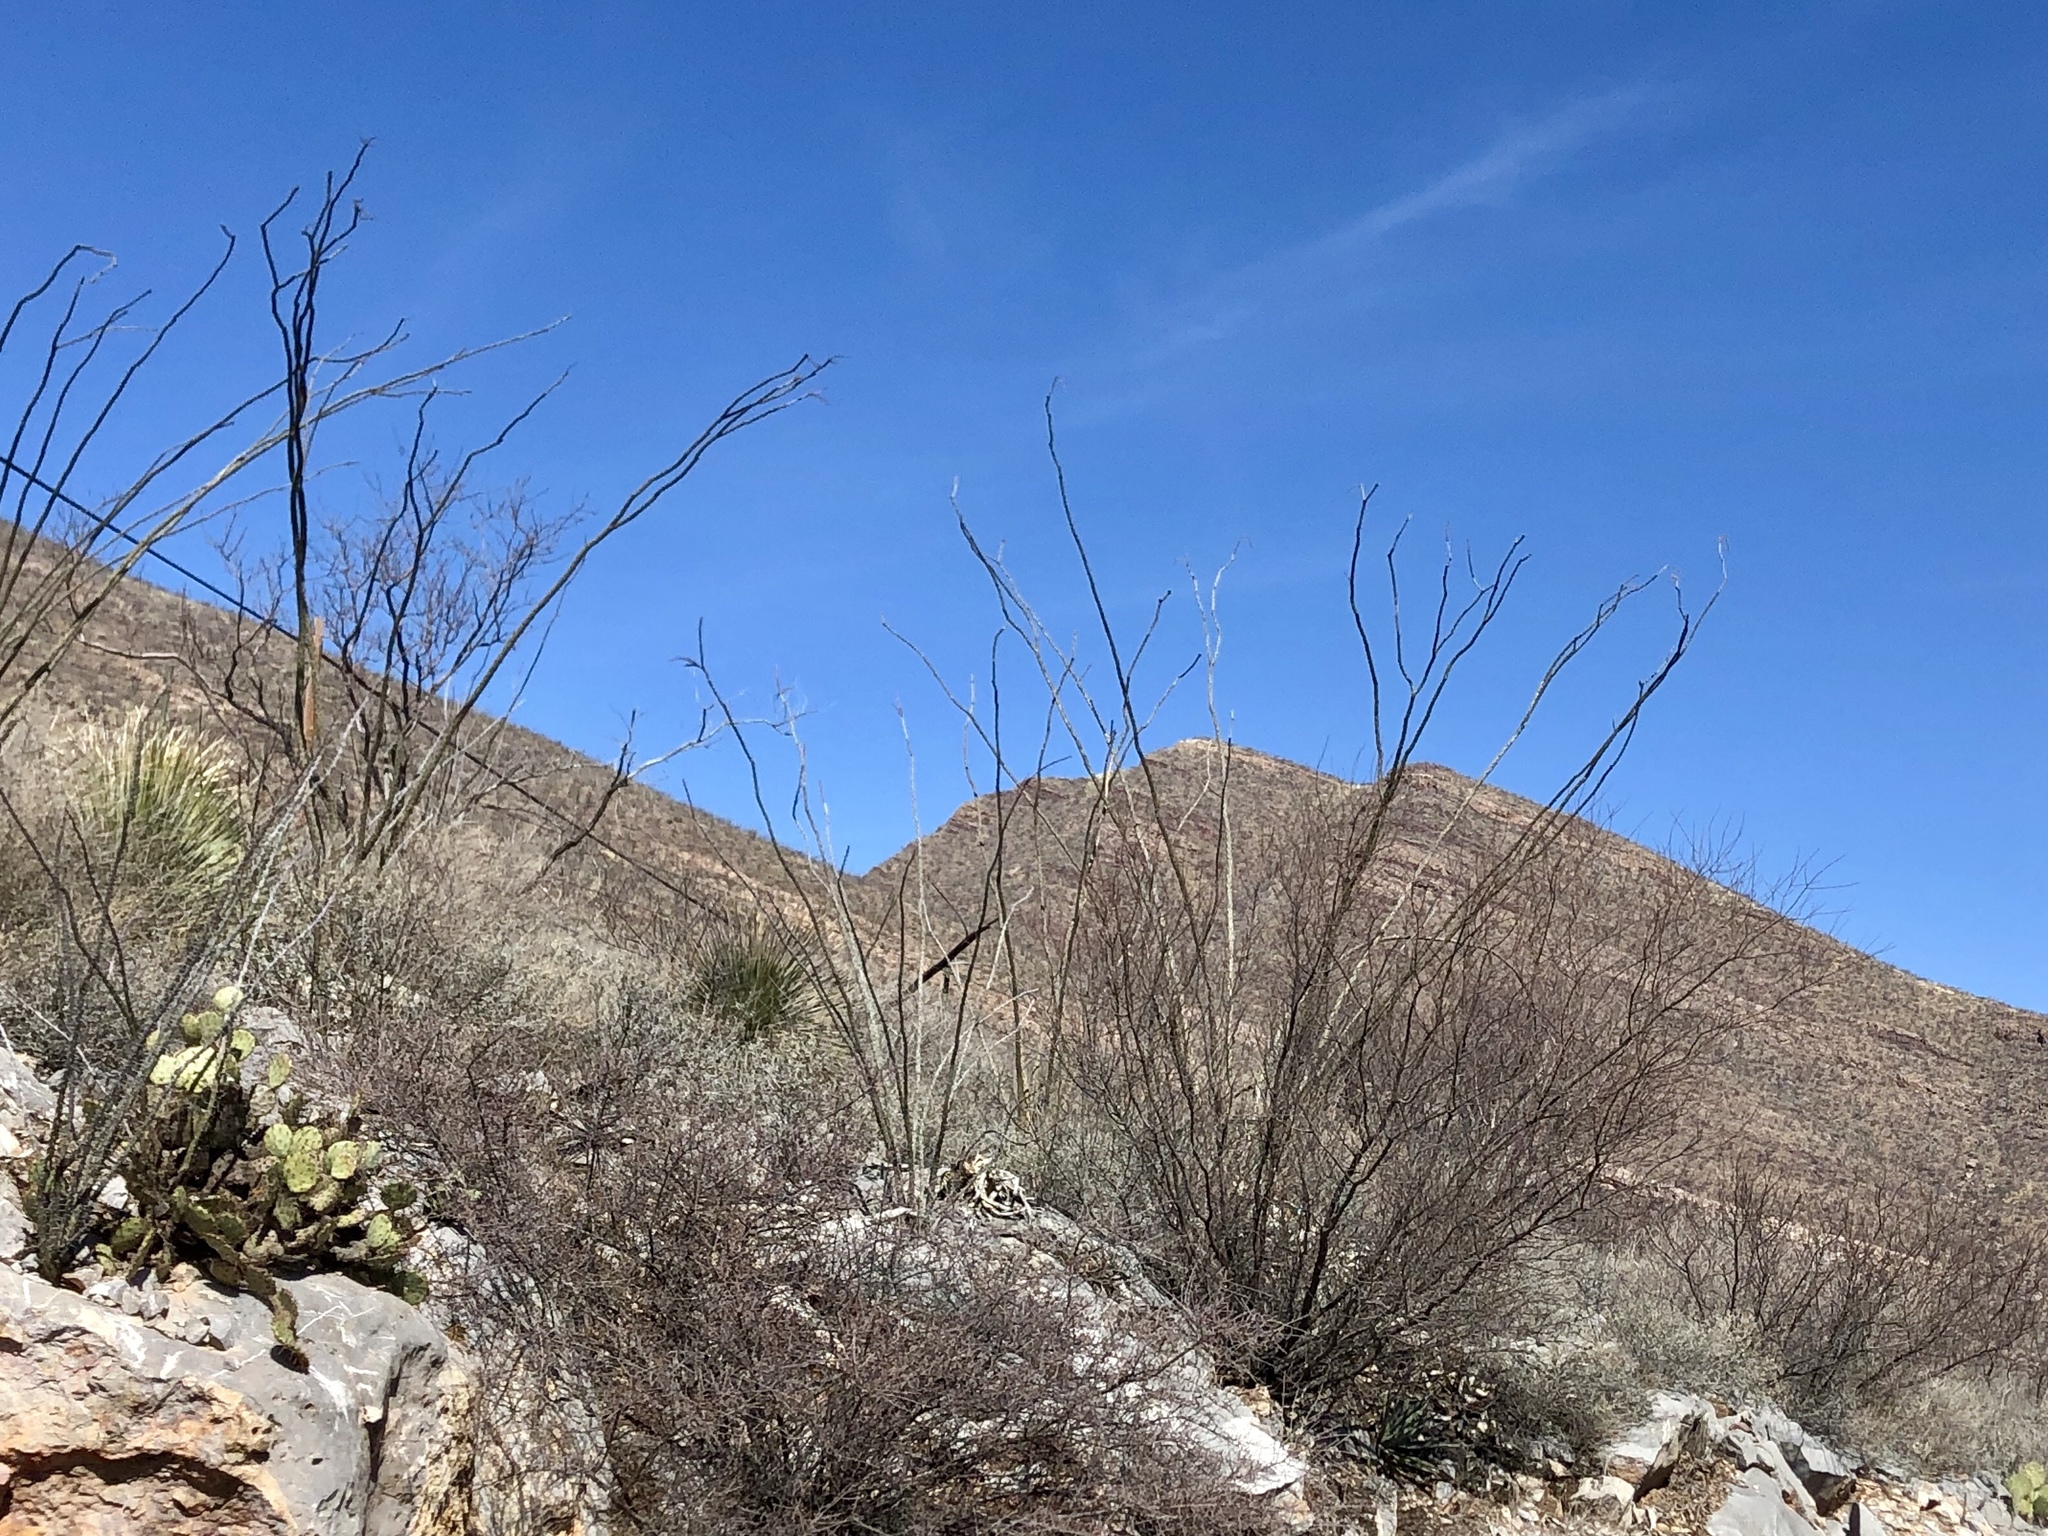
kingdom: Plantae
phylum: Tracheophyta
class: Magnoliopsida
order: Ericales
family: Fouquieriaceae
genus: Fouquieria
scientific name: Fouquieria splendens
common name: Vine-cactus
